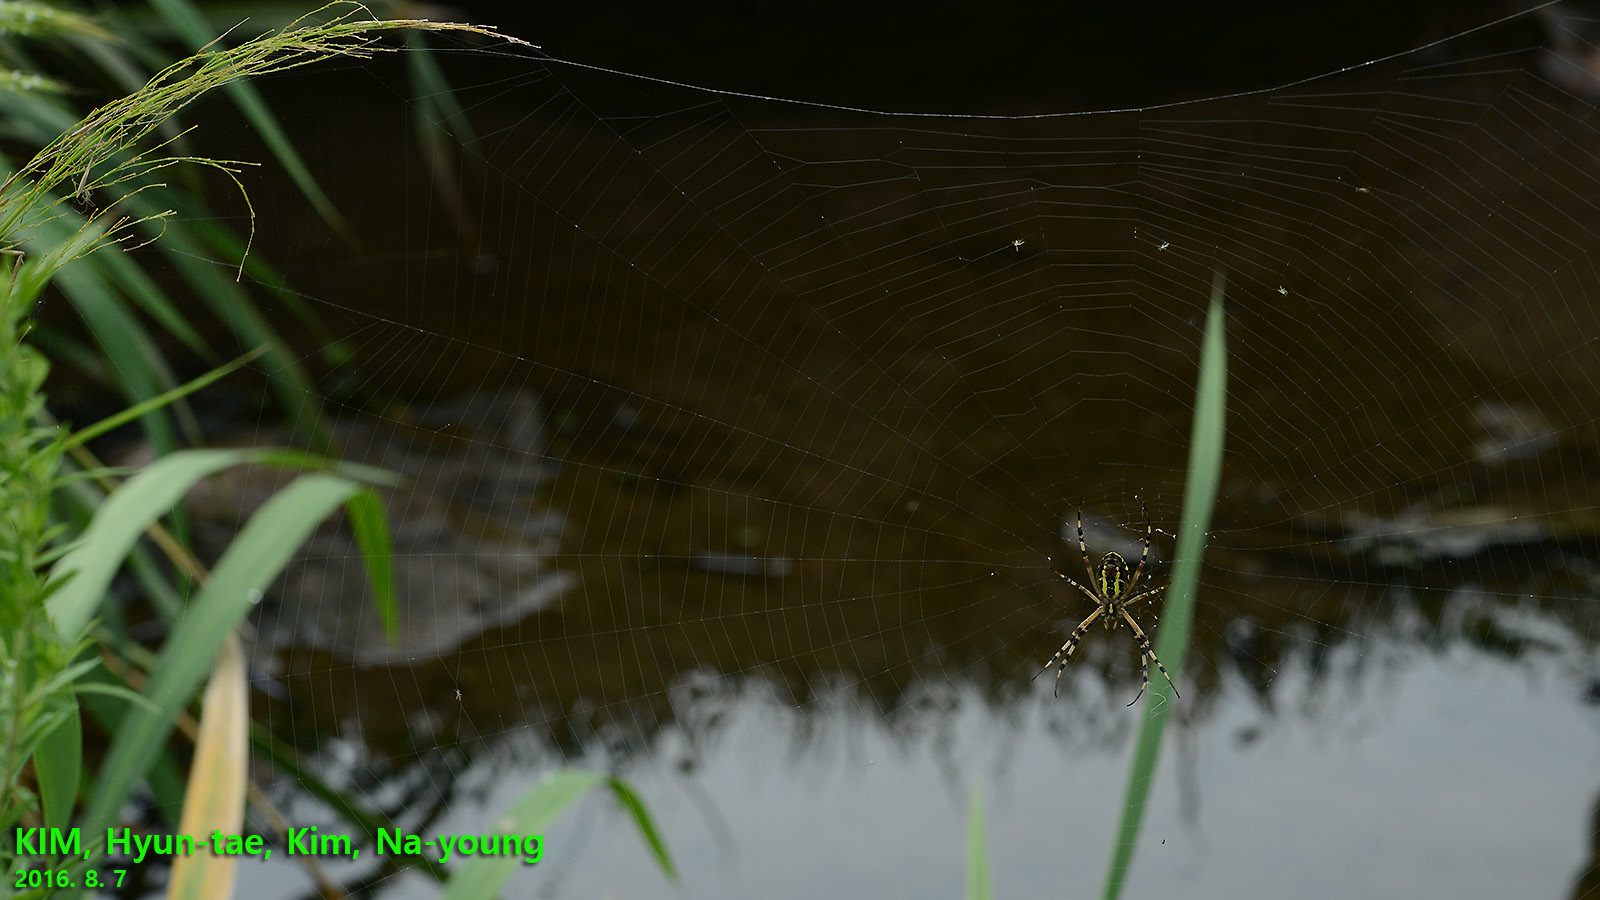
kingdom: Animalia
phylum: Arthropoda
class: Arachnida
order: Araneae
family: Araneidae
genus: Argiope
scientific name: Argiope bruennichi
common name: Wasp spider
